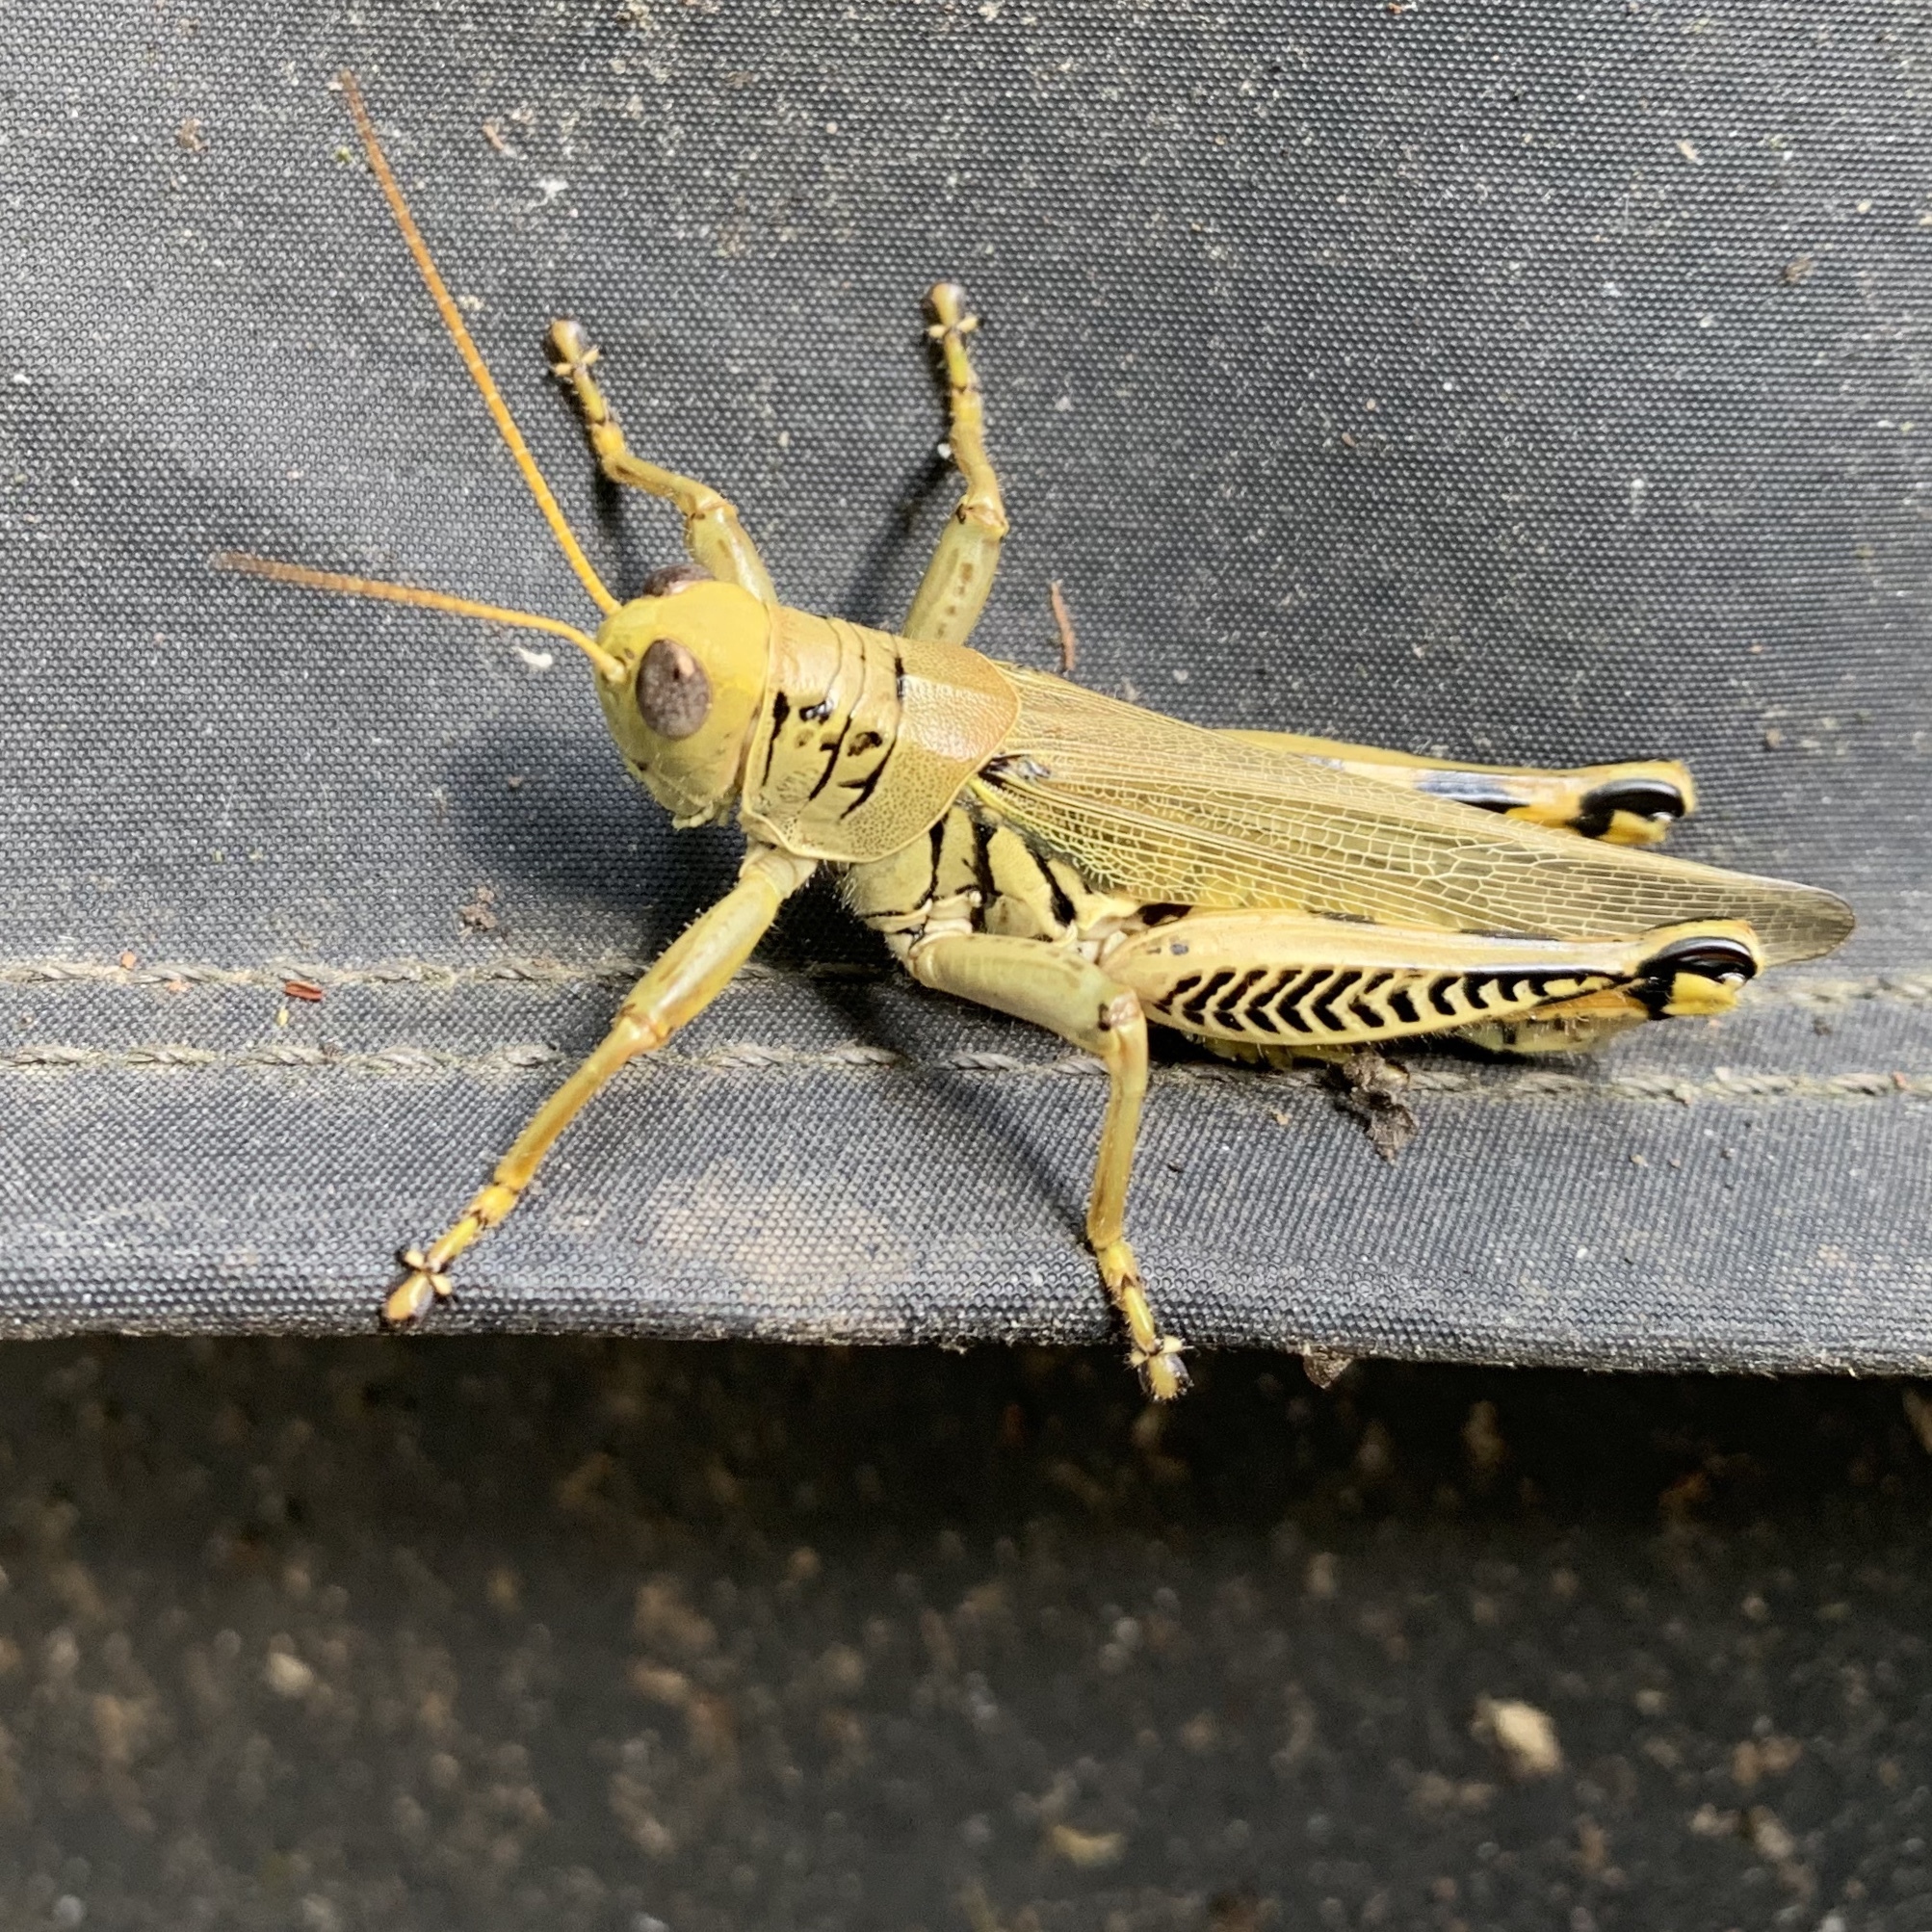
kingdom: Animalia
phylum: Arthropoda
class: Insecta
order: Orthoptera
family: Acrididae
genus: Melanoplus
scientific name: Melanoplus differentialis
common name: Differential grasshopper
